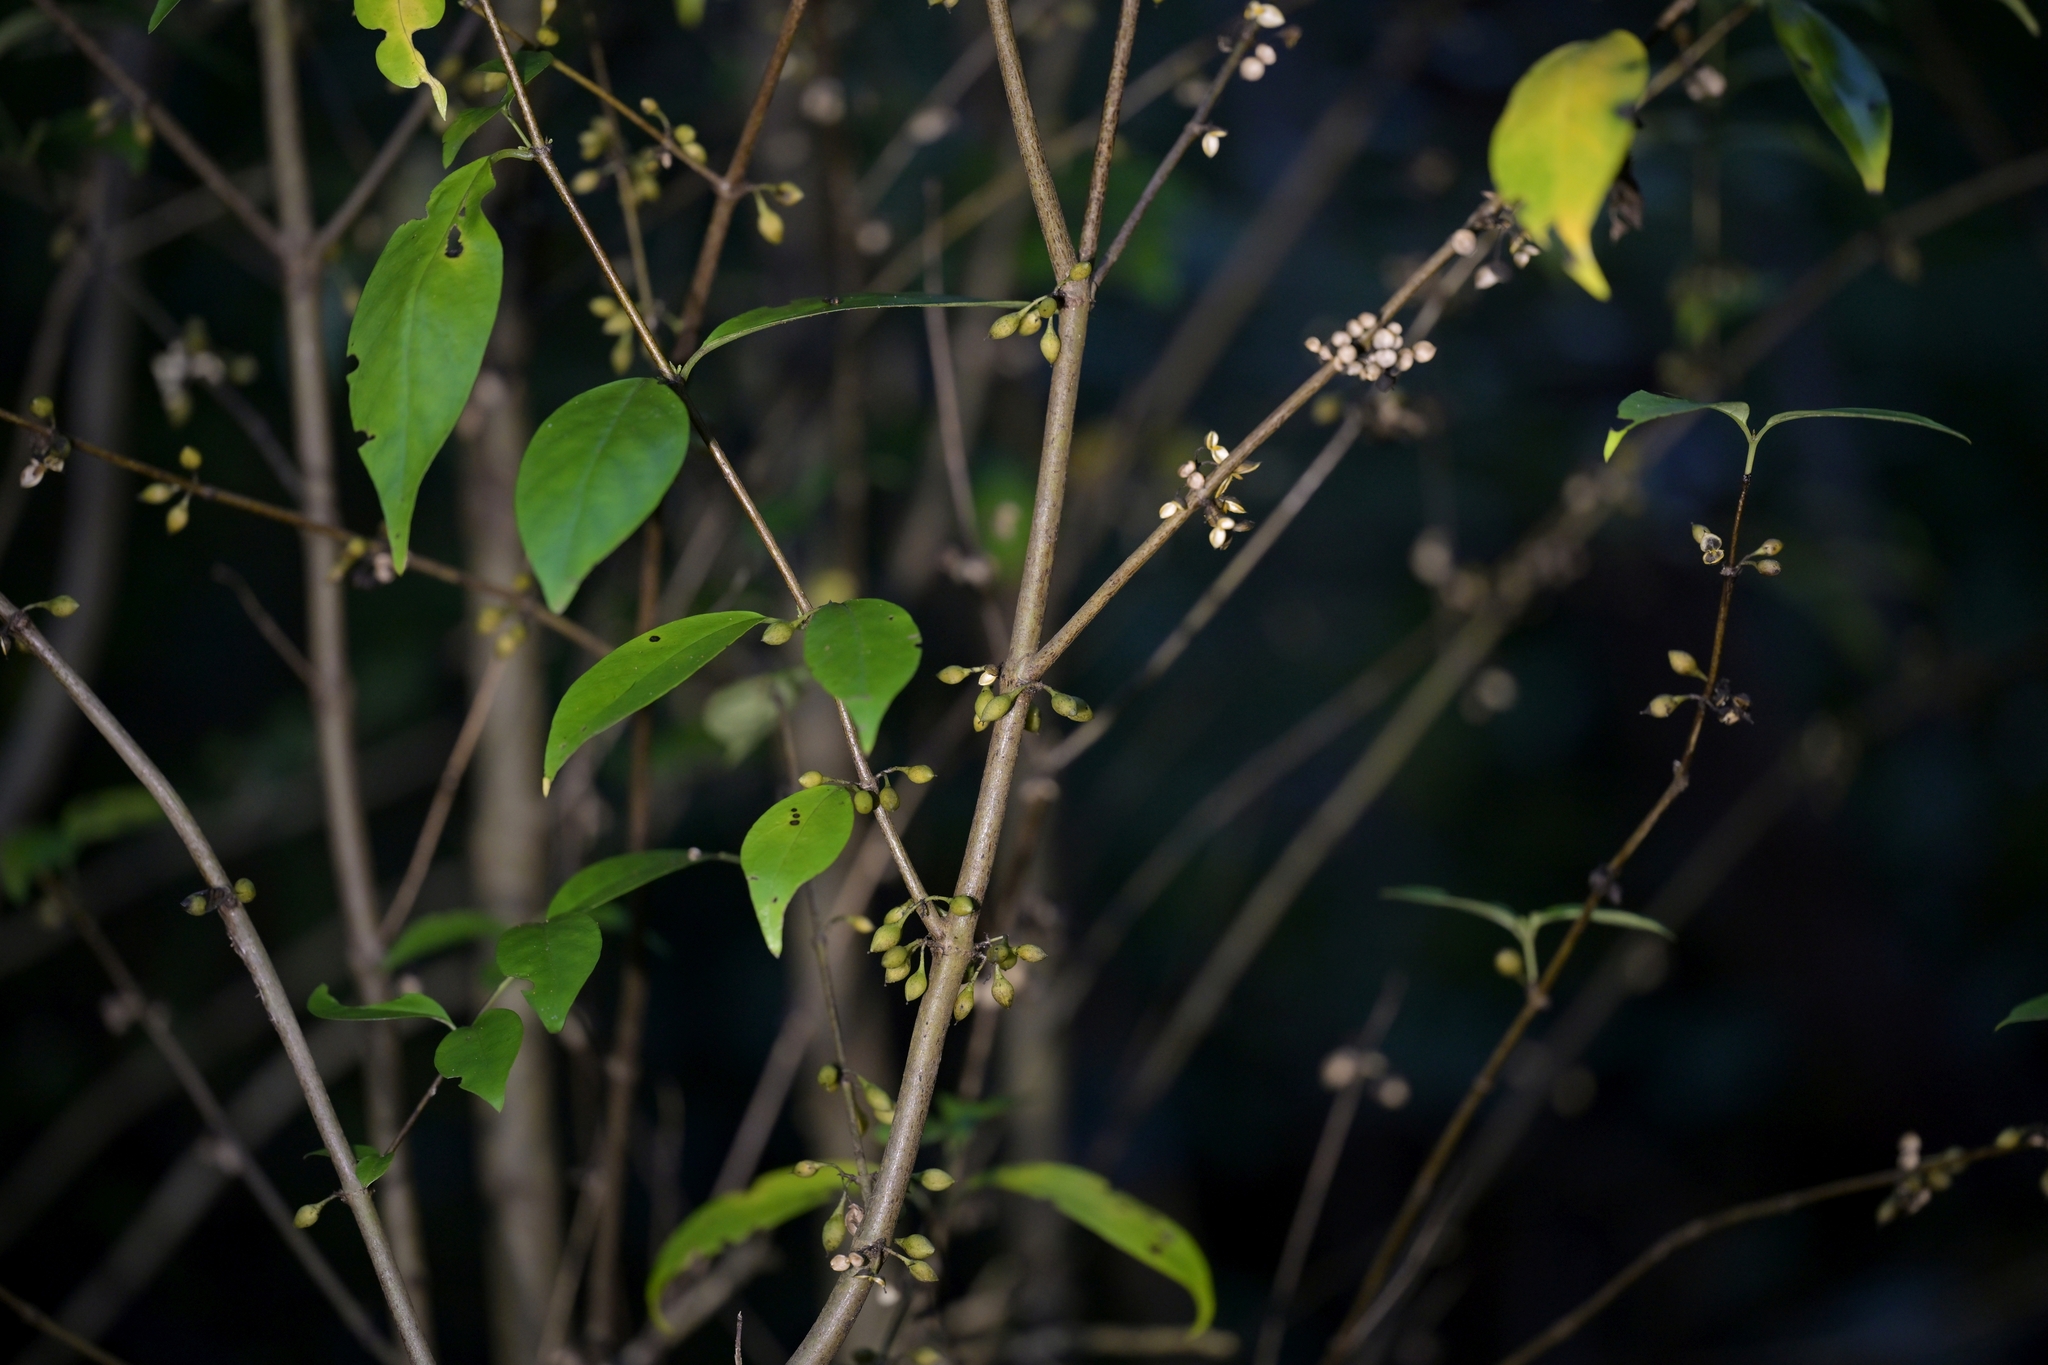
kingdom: Plantae
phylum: Tracheophyta
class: Magnoliopsida
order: Gentianales
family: Loganiaceae
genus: Geniostoma
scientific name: Geniostoma ligustrifolium
